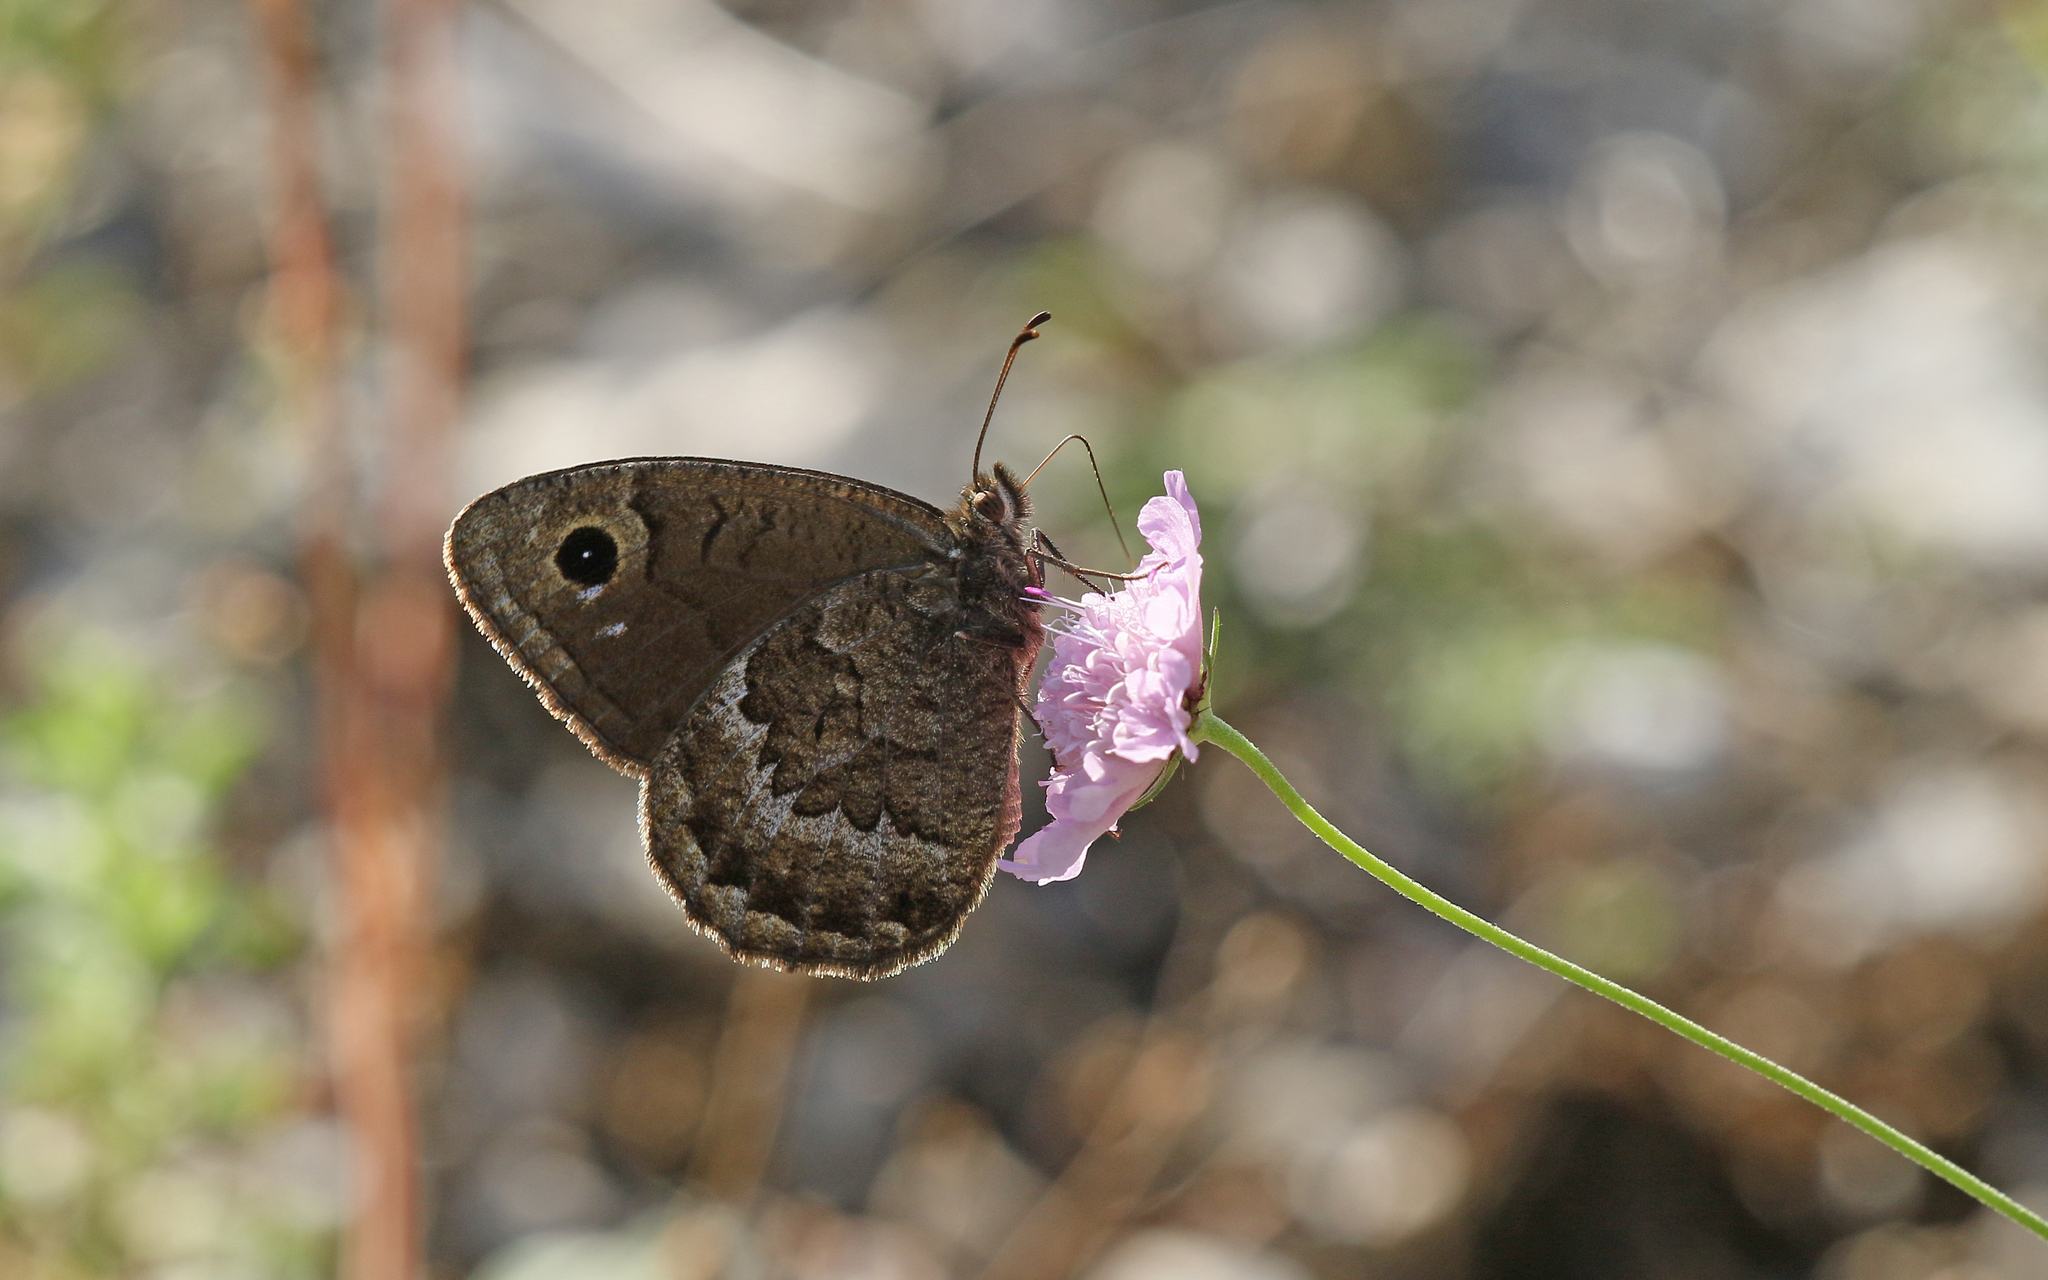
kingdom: Animalia
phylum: Arthropoda
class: Insecta
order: Lepidoptera
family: Nymphalidae
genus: Satyrus
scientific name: Satyrus actaea
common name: Black satyr
